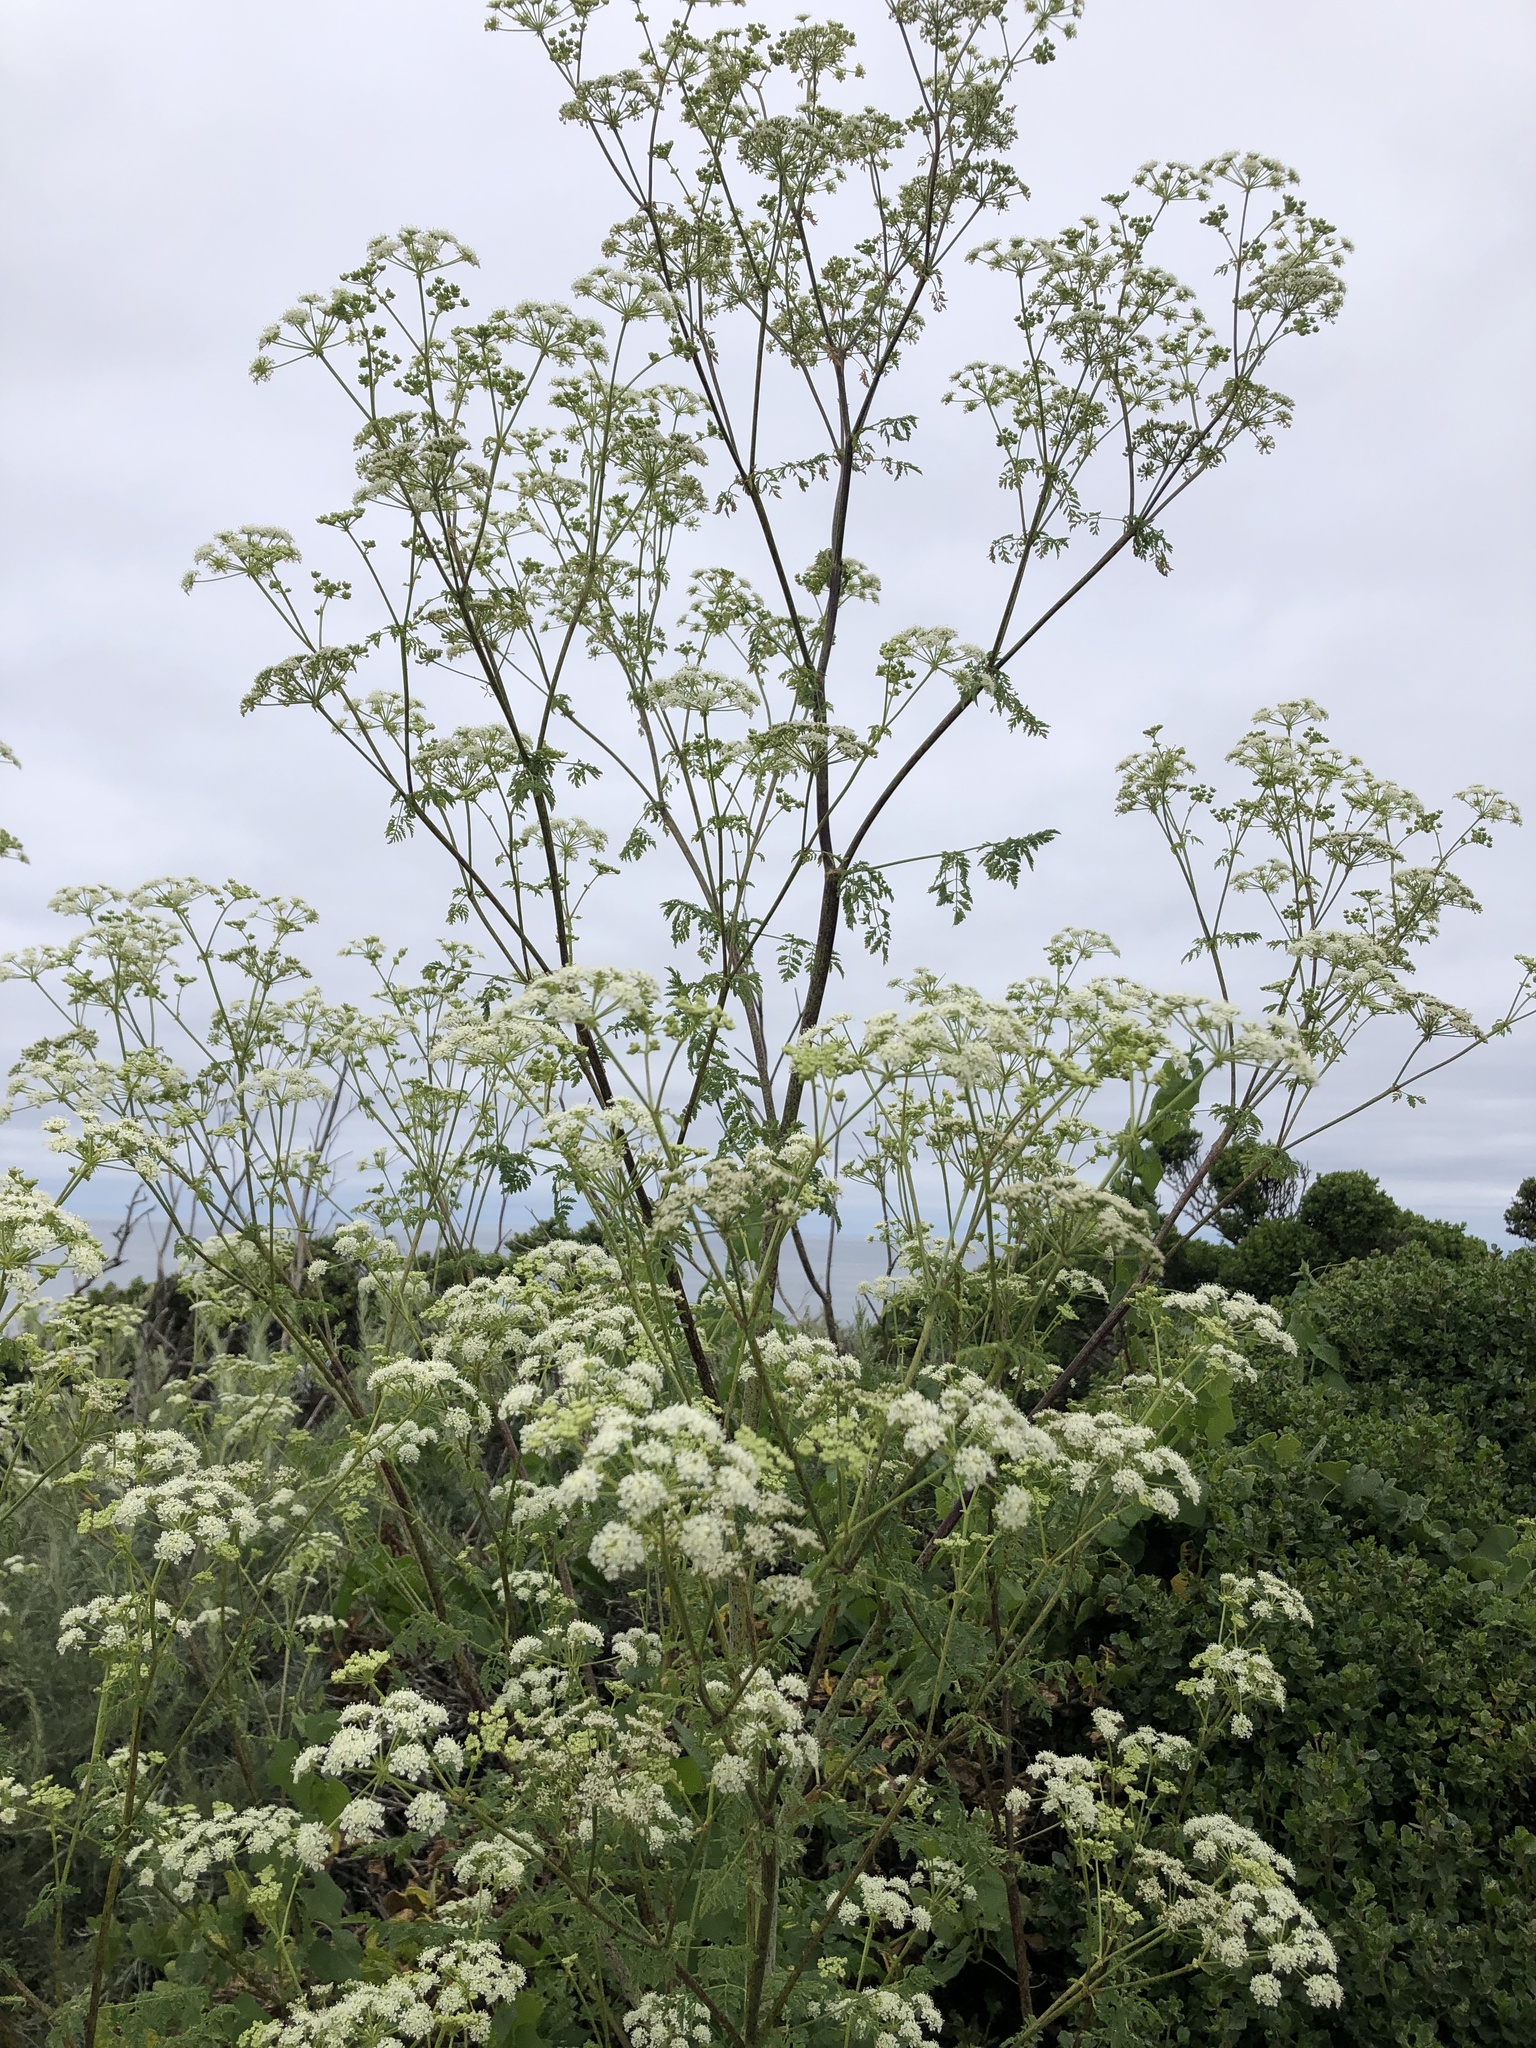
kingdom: Plantae
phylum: Tracheophyta
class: Magnoliopsida
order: Apiales
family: Apiaceae
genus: Conium
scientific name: Conium maculatum
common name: Hemlock
